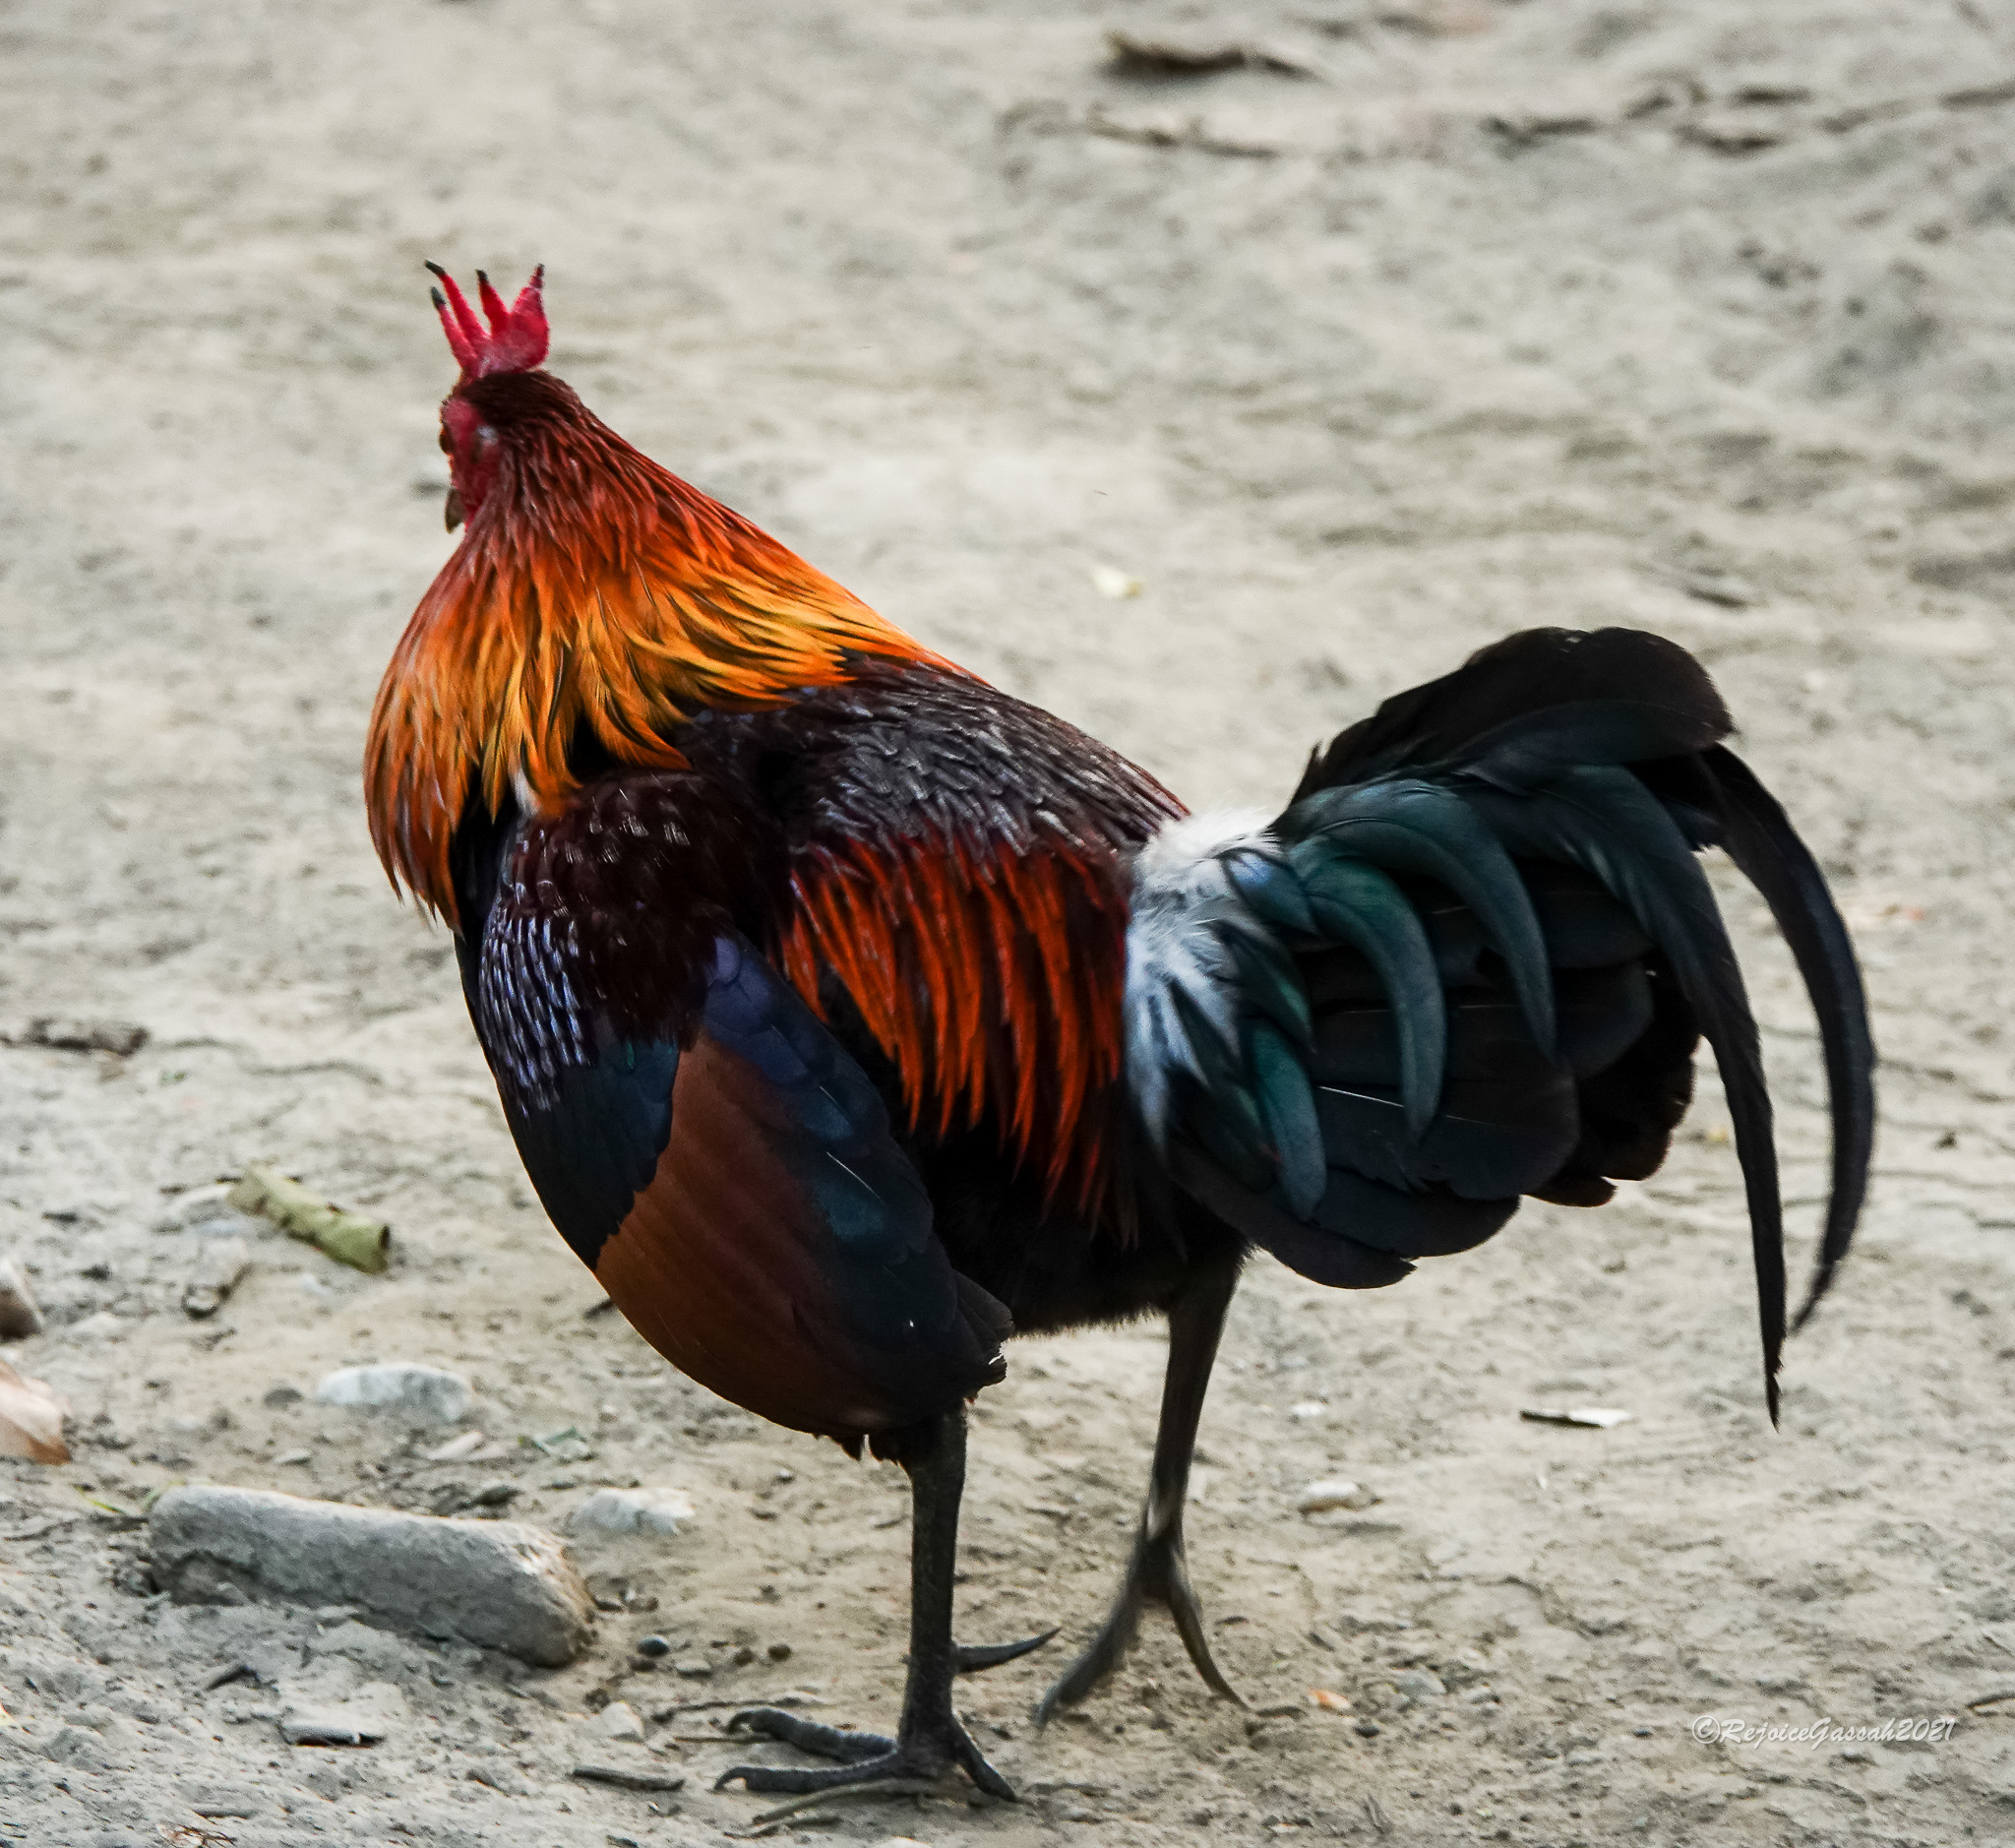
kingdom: Animalia
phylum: Chordata
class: Aves
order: Galliformes
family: Phasianidae
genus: Gallus
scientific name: Gallus gallus
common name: Red junglefowl
